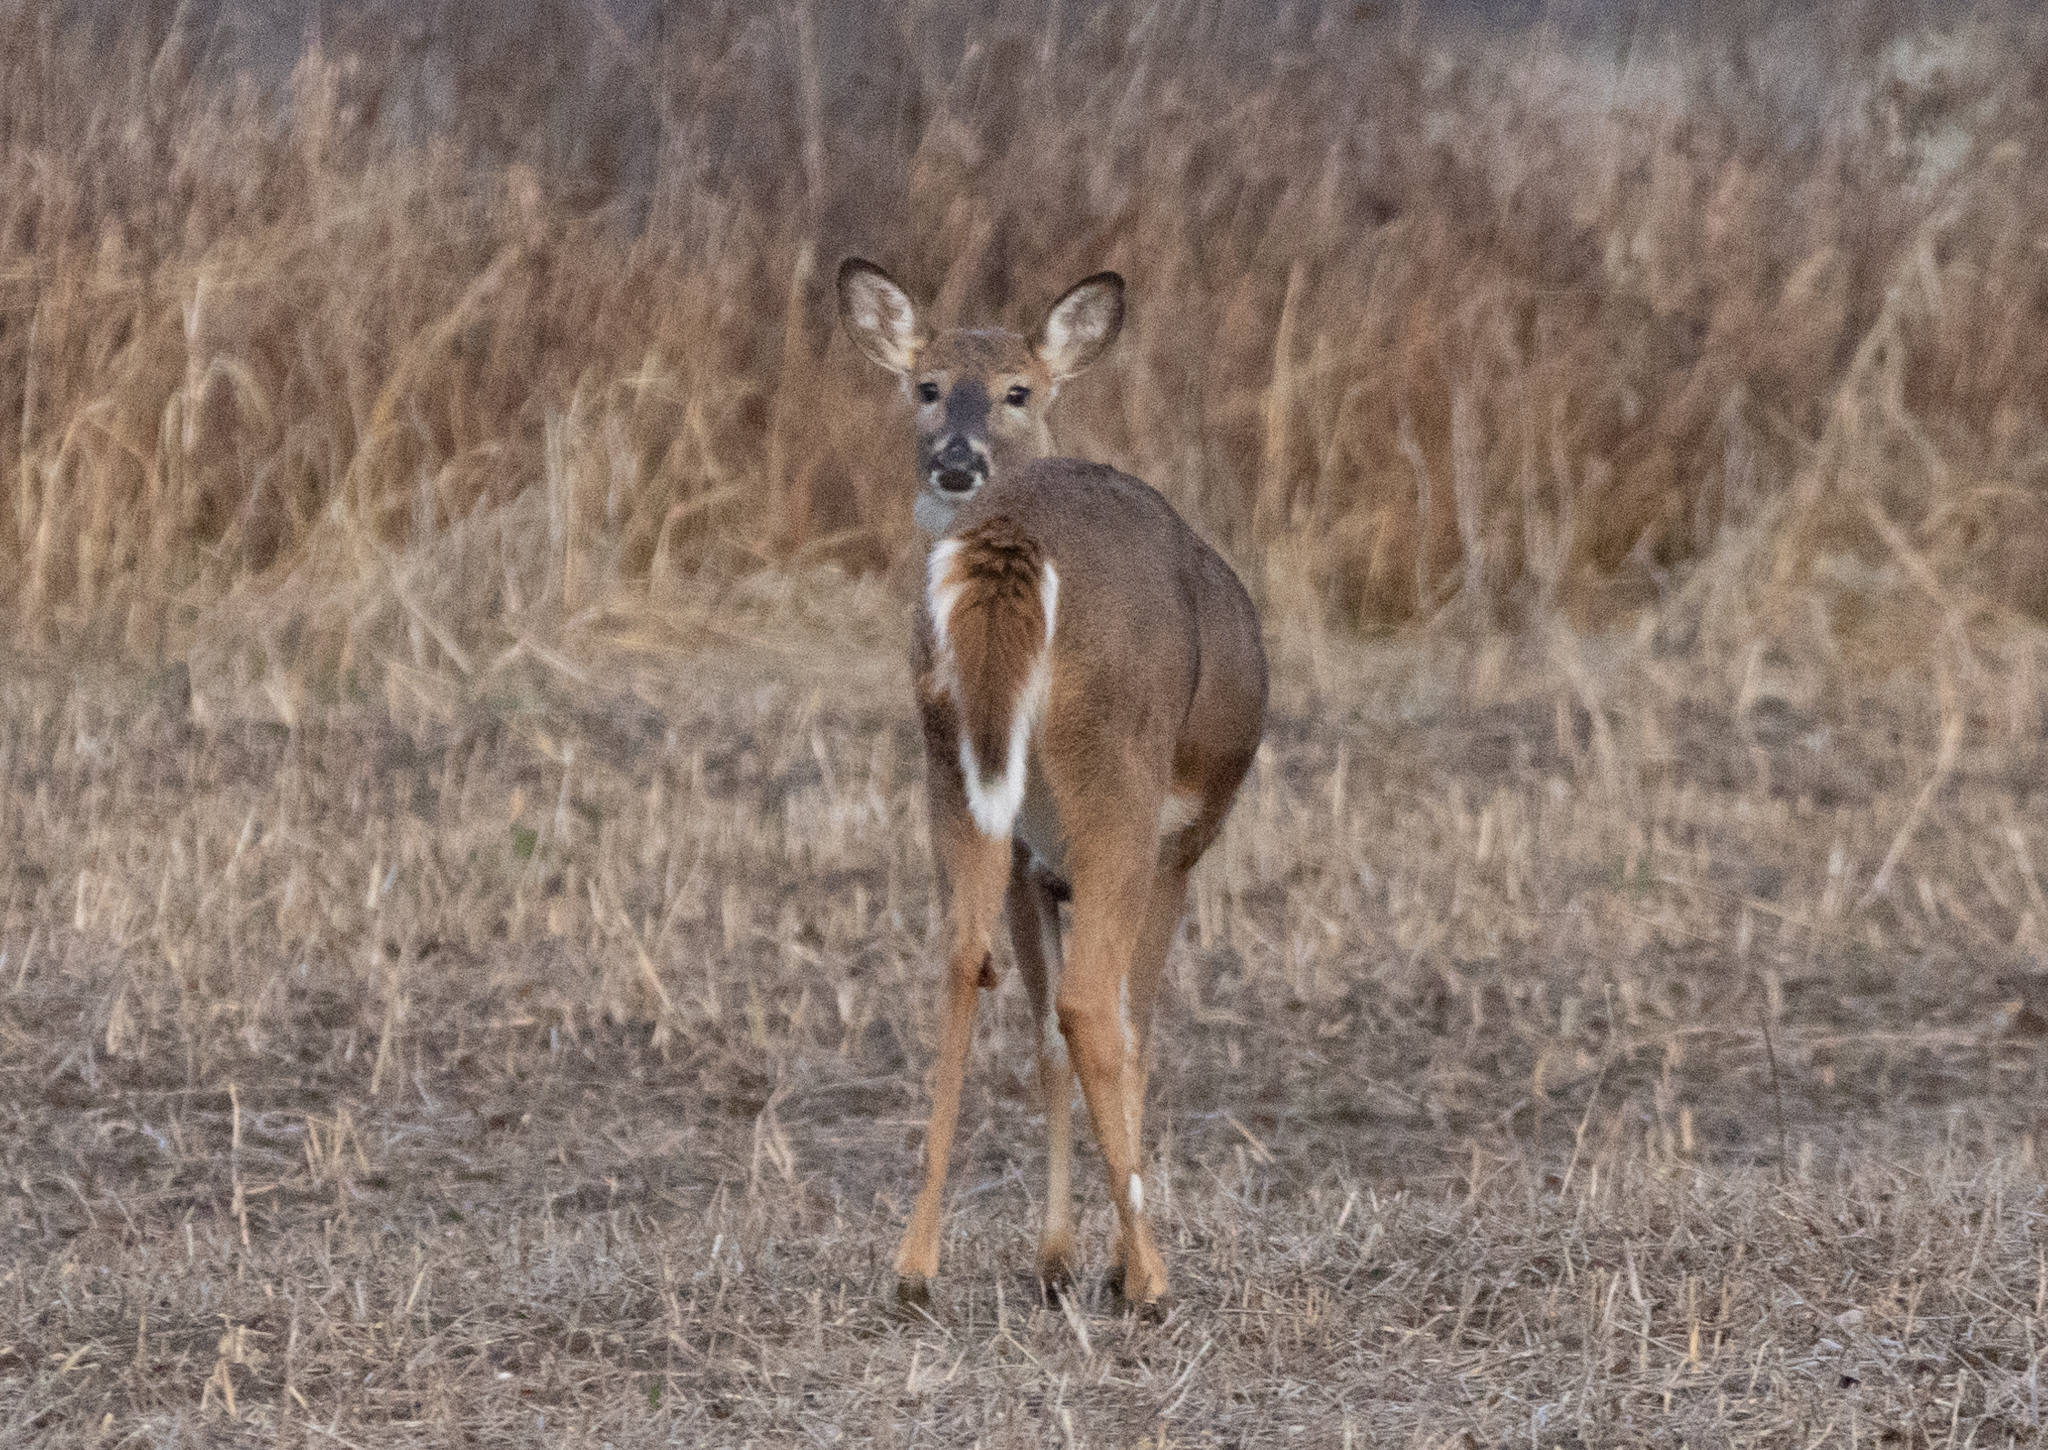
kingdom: Animalia
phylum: Chordata
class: Mammalia
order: Artiodactyla
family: Cervidae
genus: Odocoileus
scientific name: Odocoileus virginianus
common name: White-tailed deer
